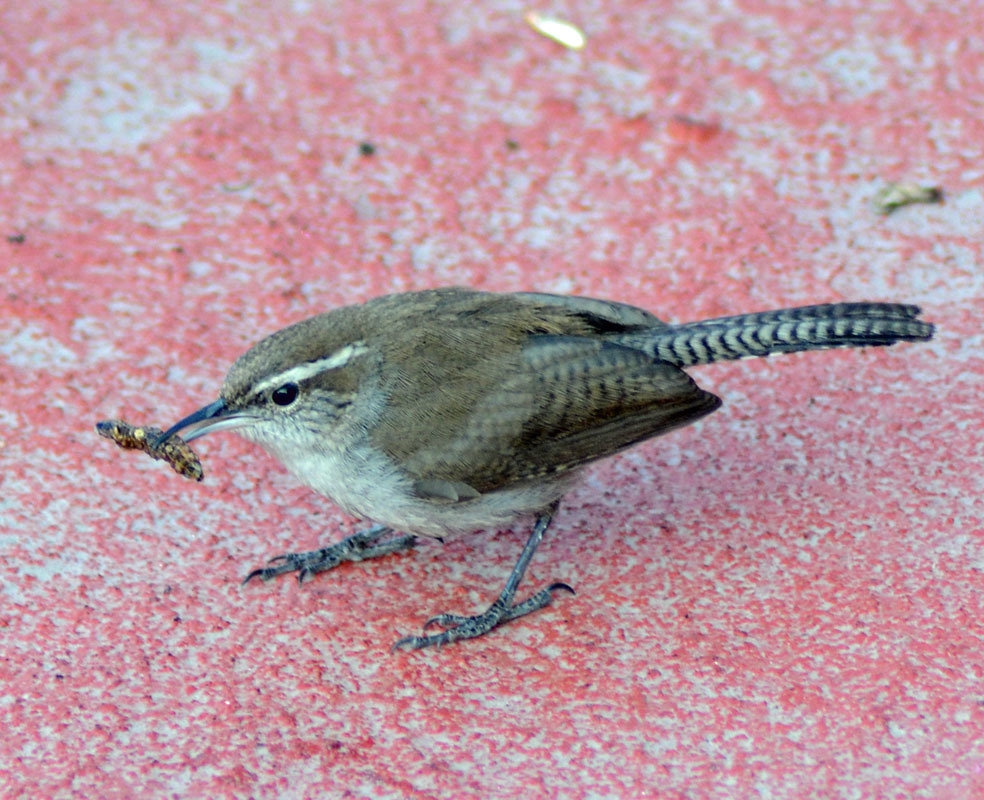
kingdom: Animalia
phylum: Chordata
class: Aves
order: Passeriformes
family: Troglodytidae
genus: Thryomanes
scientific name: Thryomanes bewickii
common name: Bewick's wren
